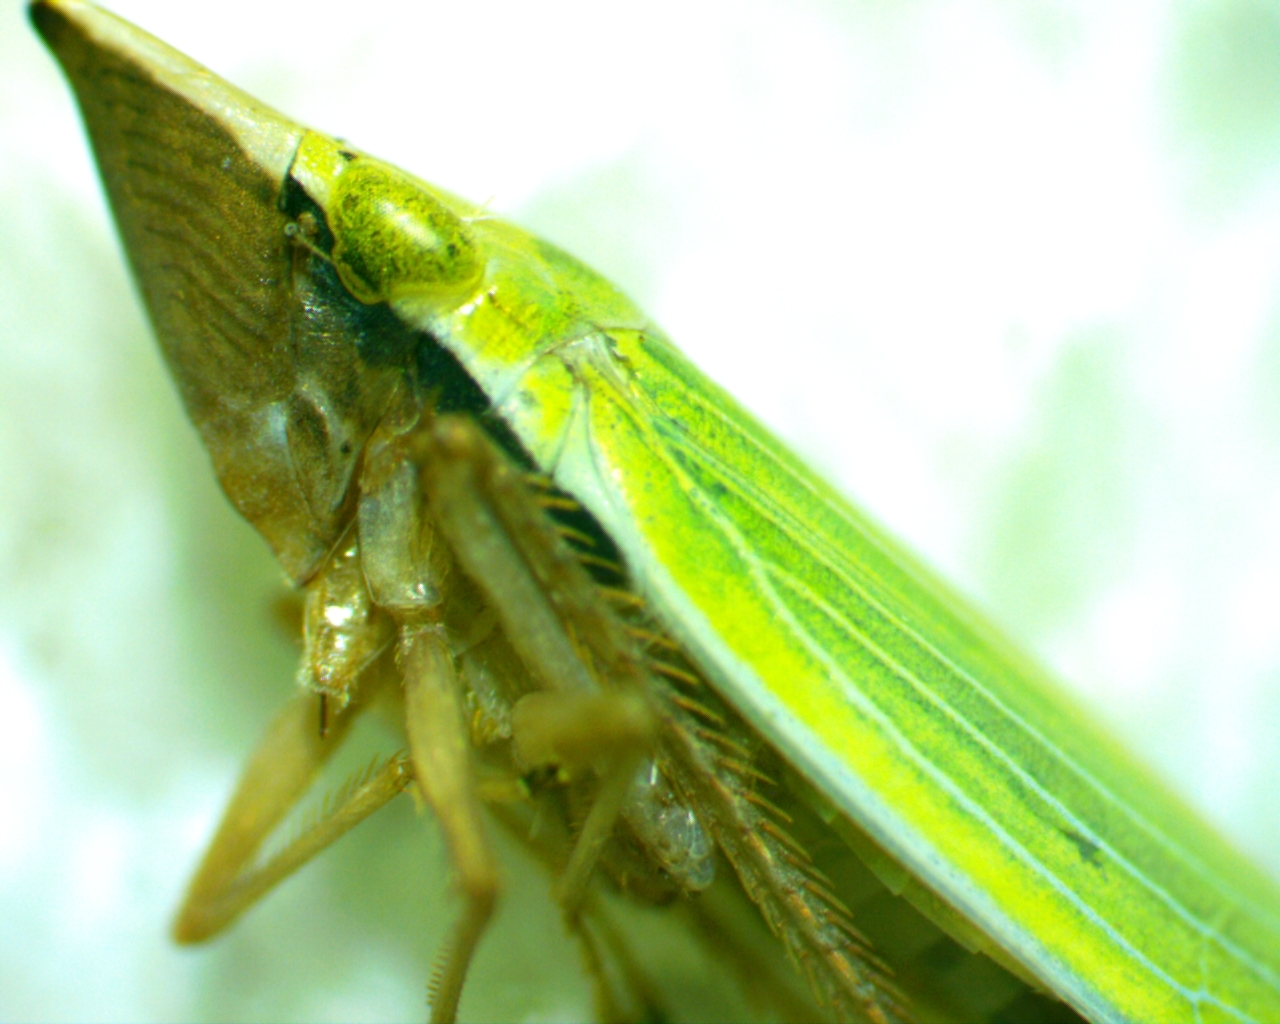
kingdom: Animalia
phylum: Arthropoda
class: Insecta
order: Hemiptera
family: Cicadellidae
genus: Draeculacephala
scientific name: Draeculacephala antica
